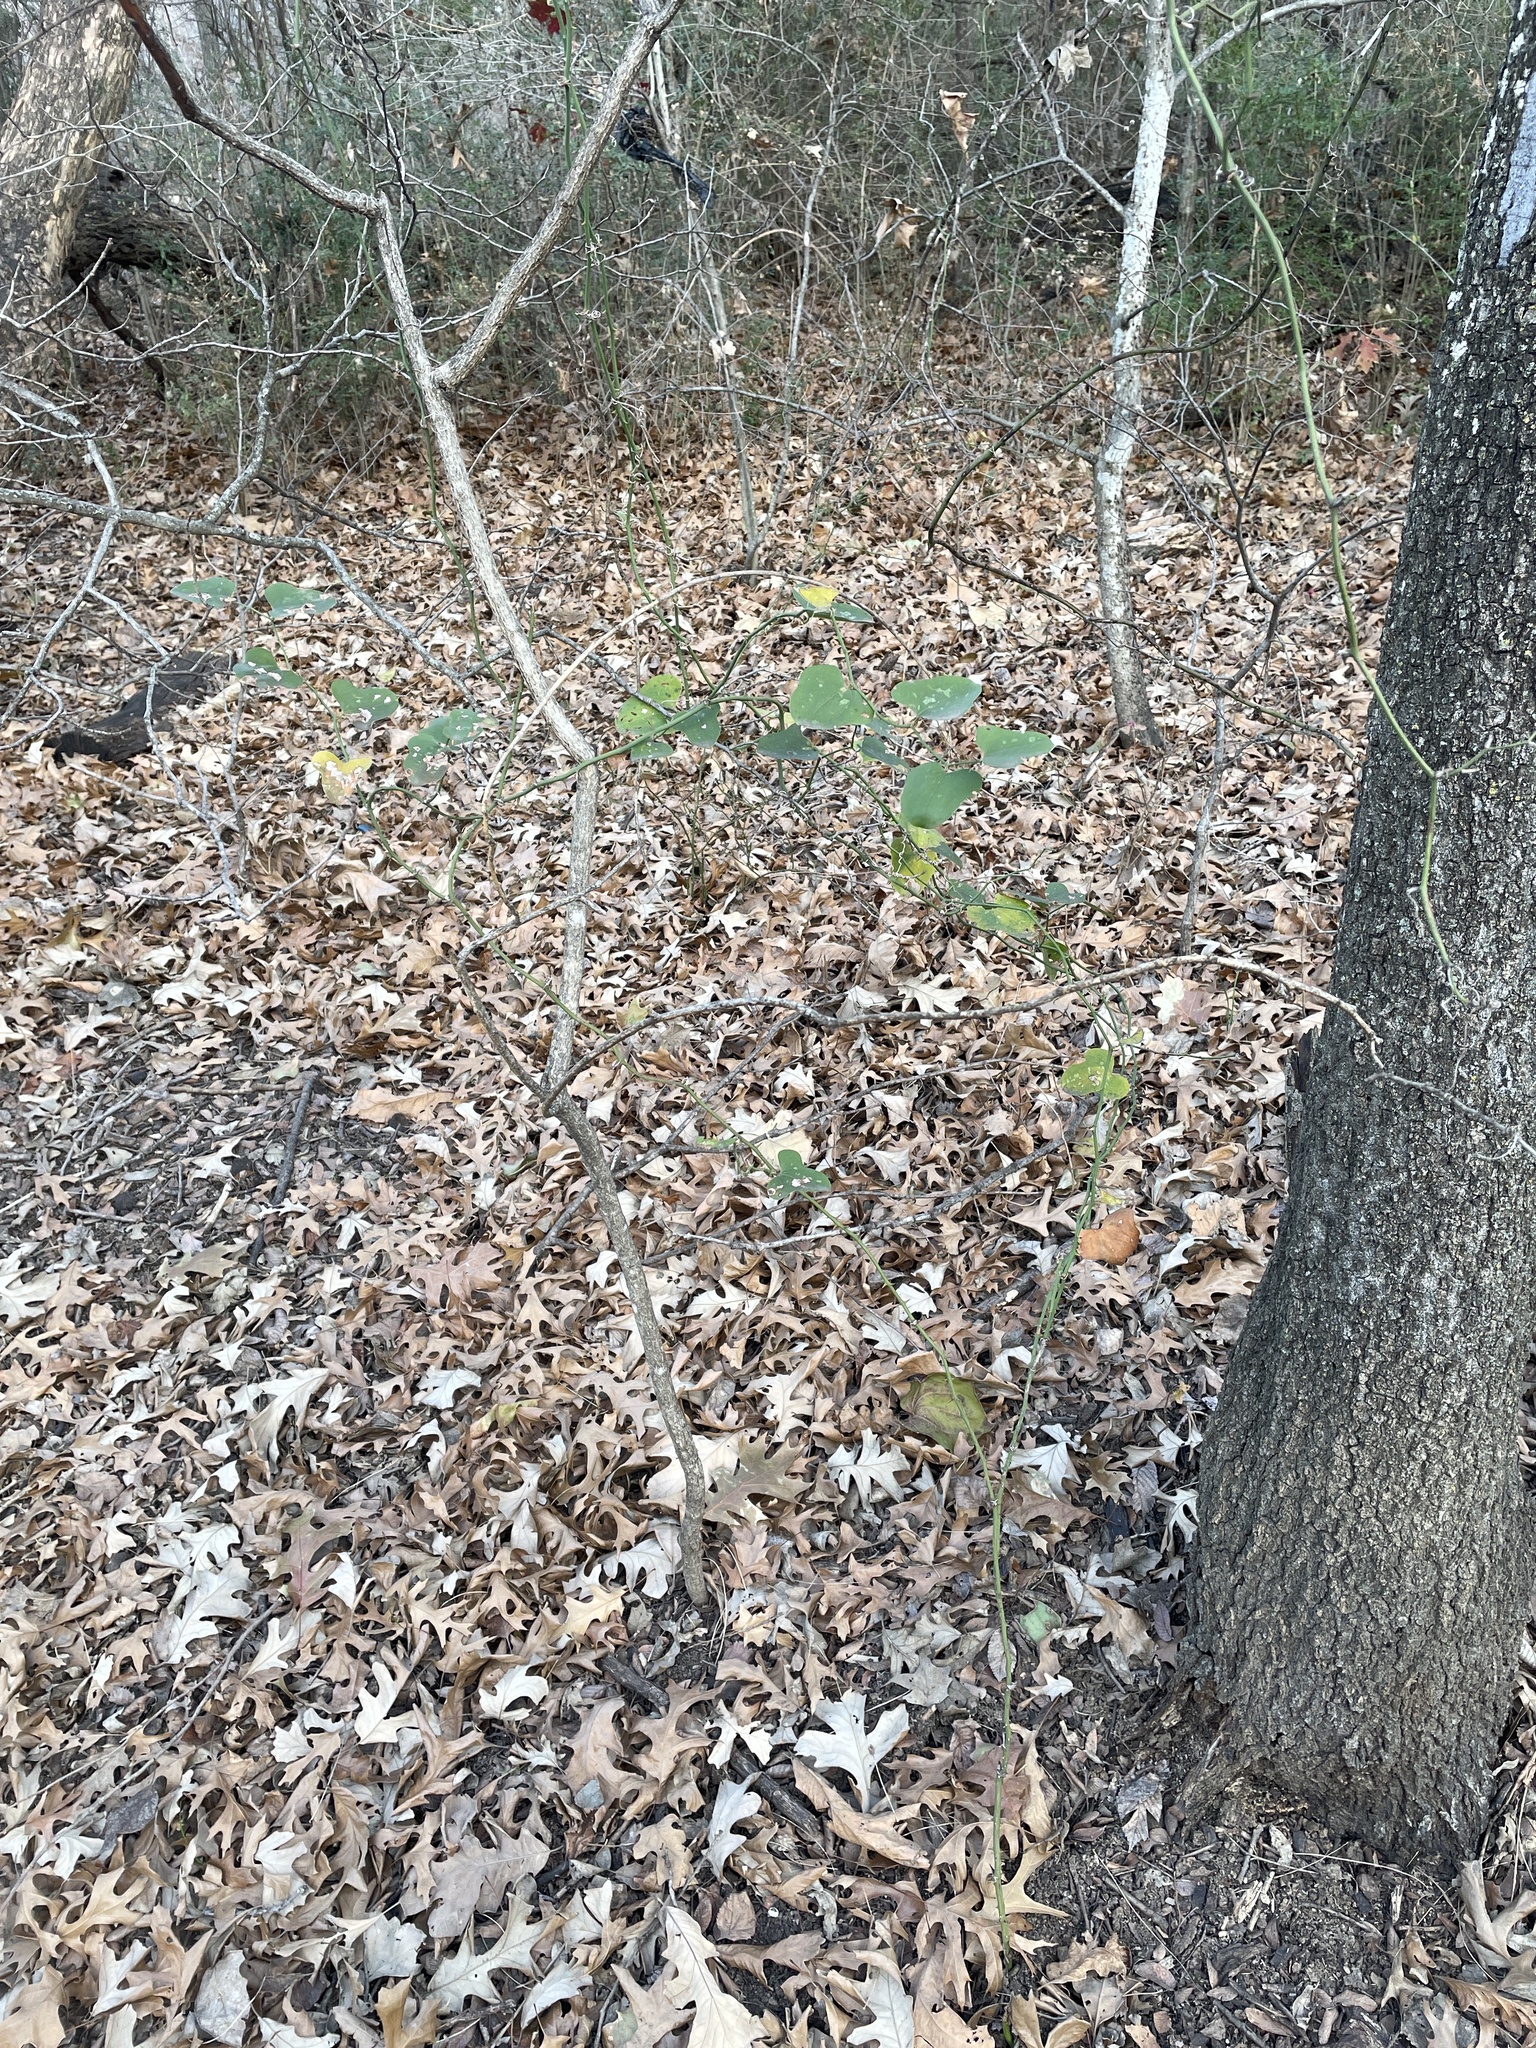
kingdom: Plantae
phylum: Tracheophyta
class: Liliopsida
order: Liliales
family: Smilacaceae
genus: Smilax
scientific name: Smilax bona-nox
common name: Catbrier
